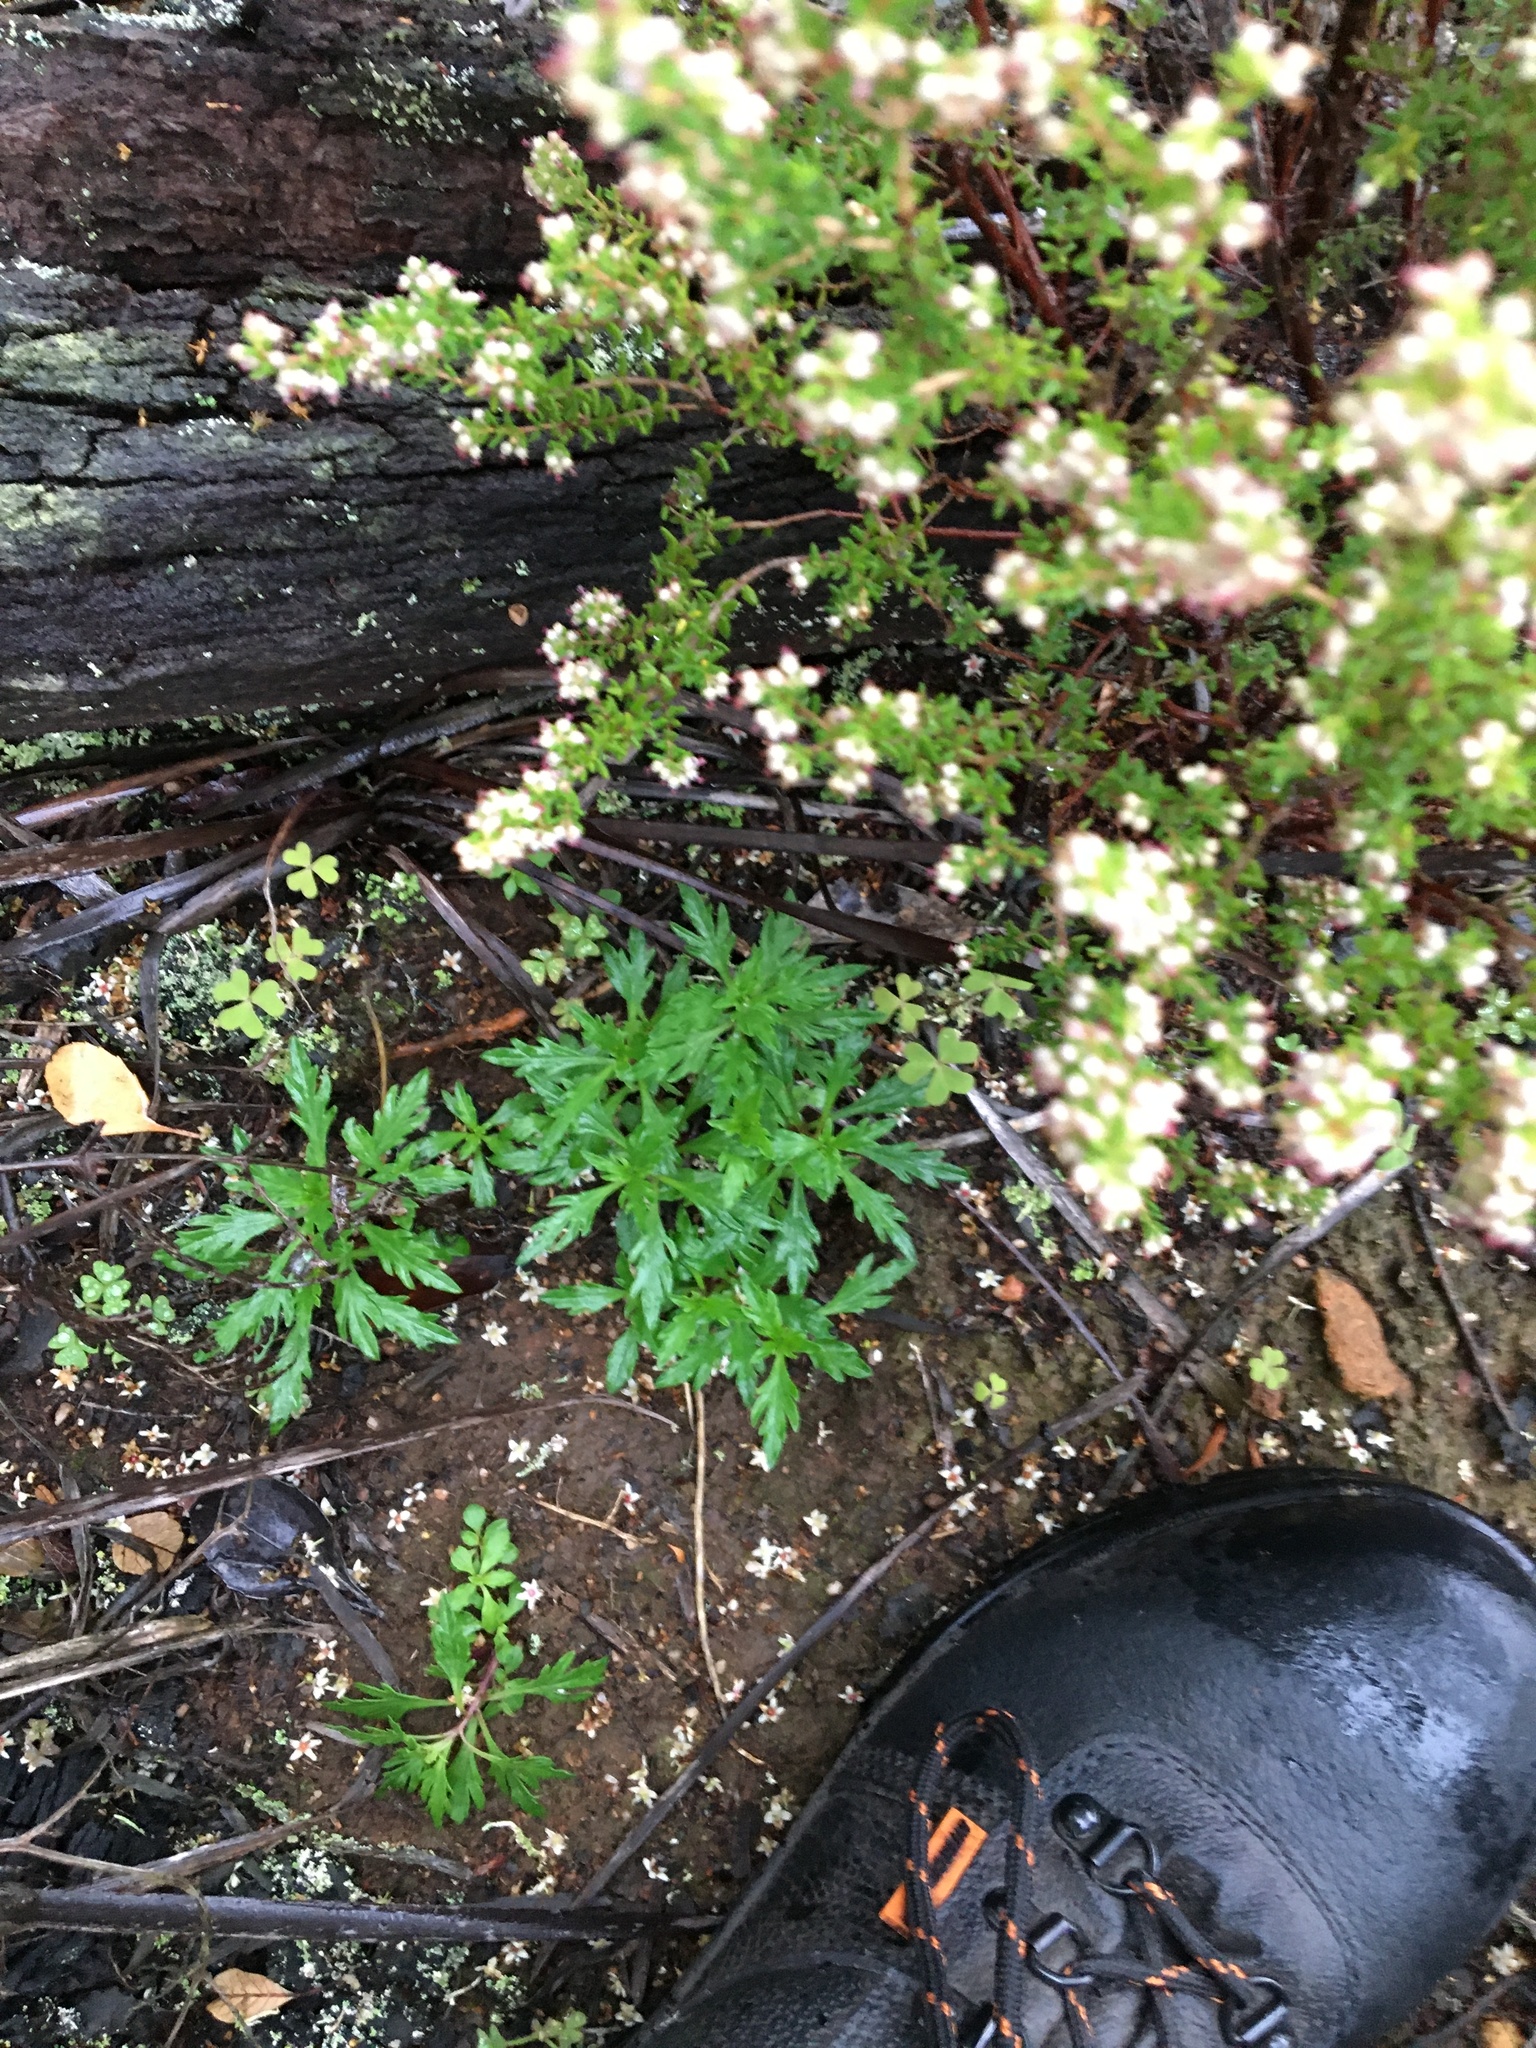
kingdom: Plantae
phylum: Tracheophyta
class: Magnoliopsida
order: Asterales
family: Campanulaceae
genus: Cyphia
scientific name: Cyphia bulbosa
